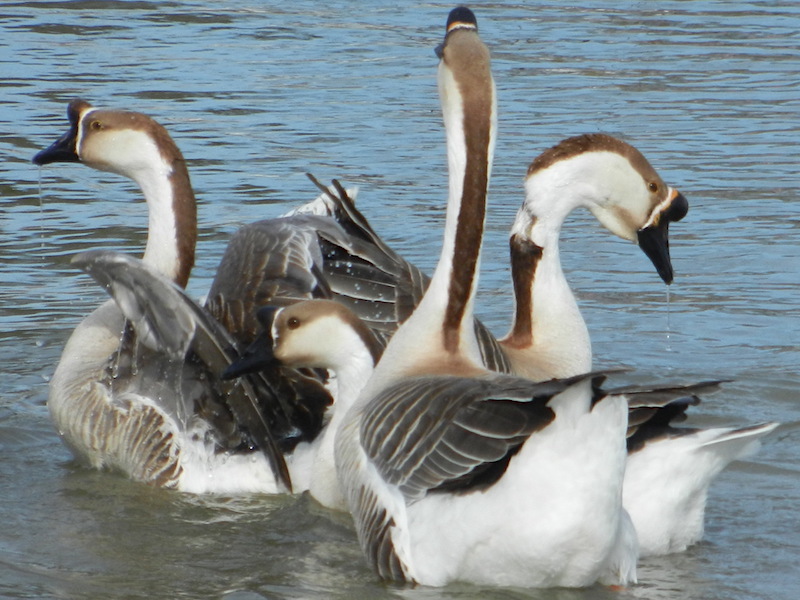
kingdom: Animalia
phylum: Chordata
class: Aves
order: Anseriformes
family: Anatidae
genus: Anser
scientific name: Anser cygnoides
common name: Swan goose
